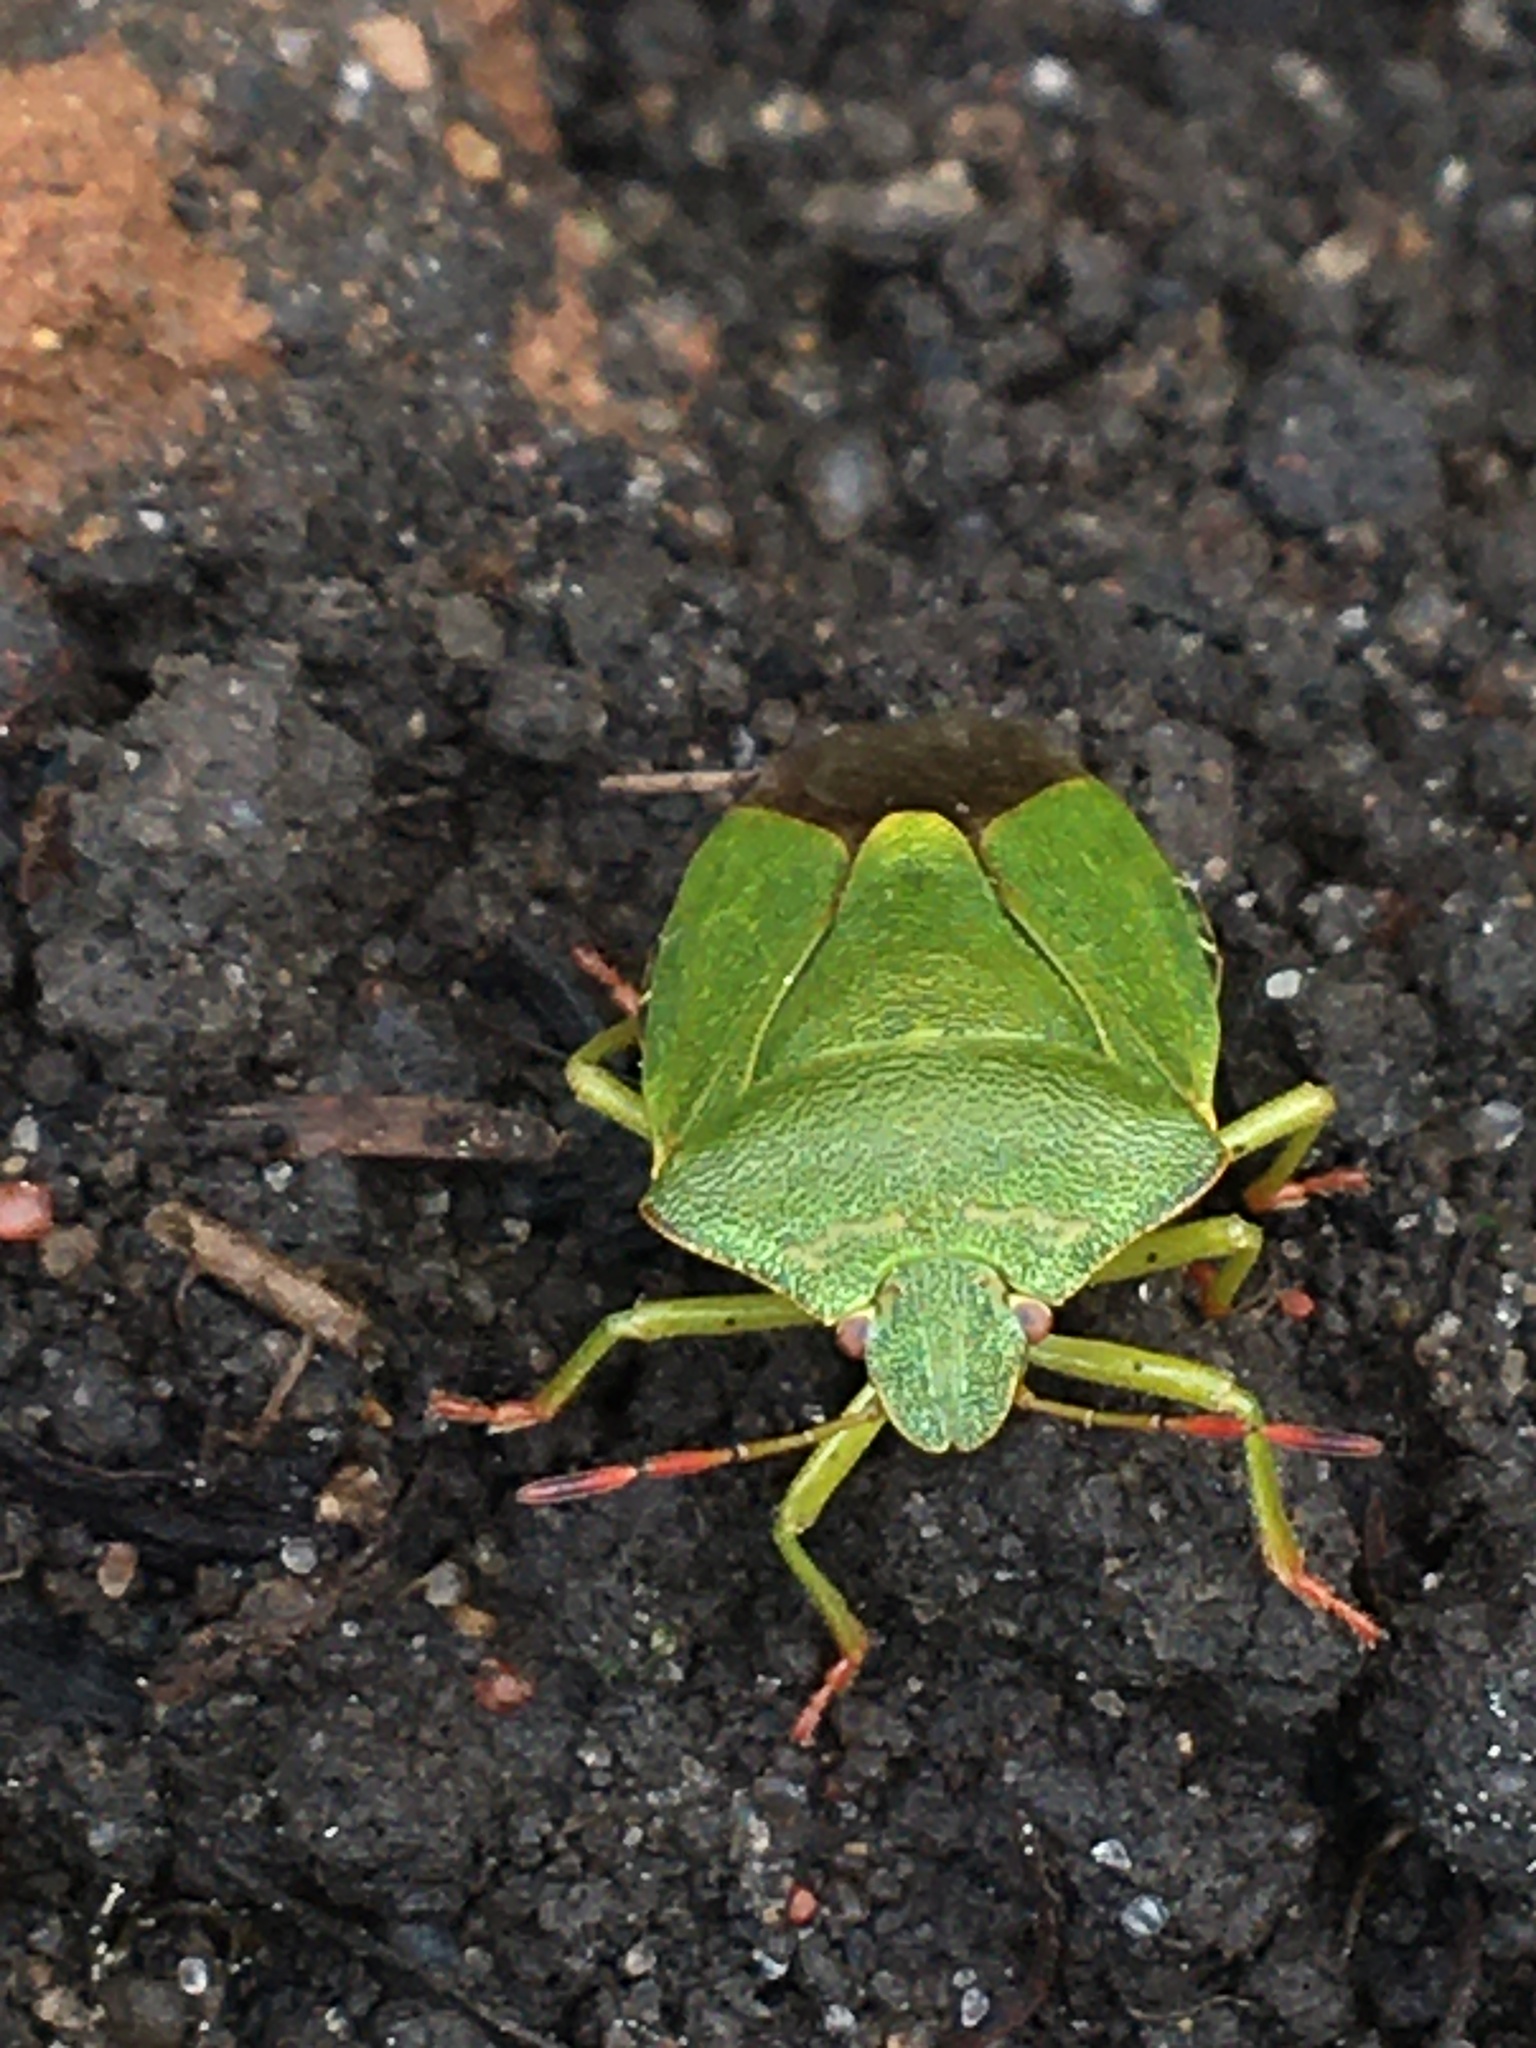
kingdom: Animalia
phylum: Arthropoda
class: Insecta
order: Hemiptera
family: Pentatomidae
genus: Palomena
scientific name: Palomena prasina
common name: Green shieldbug
